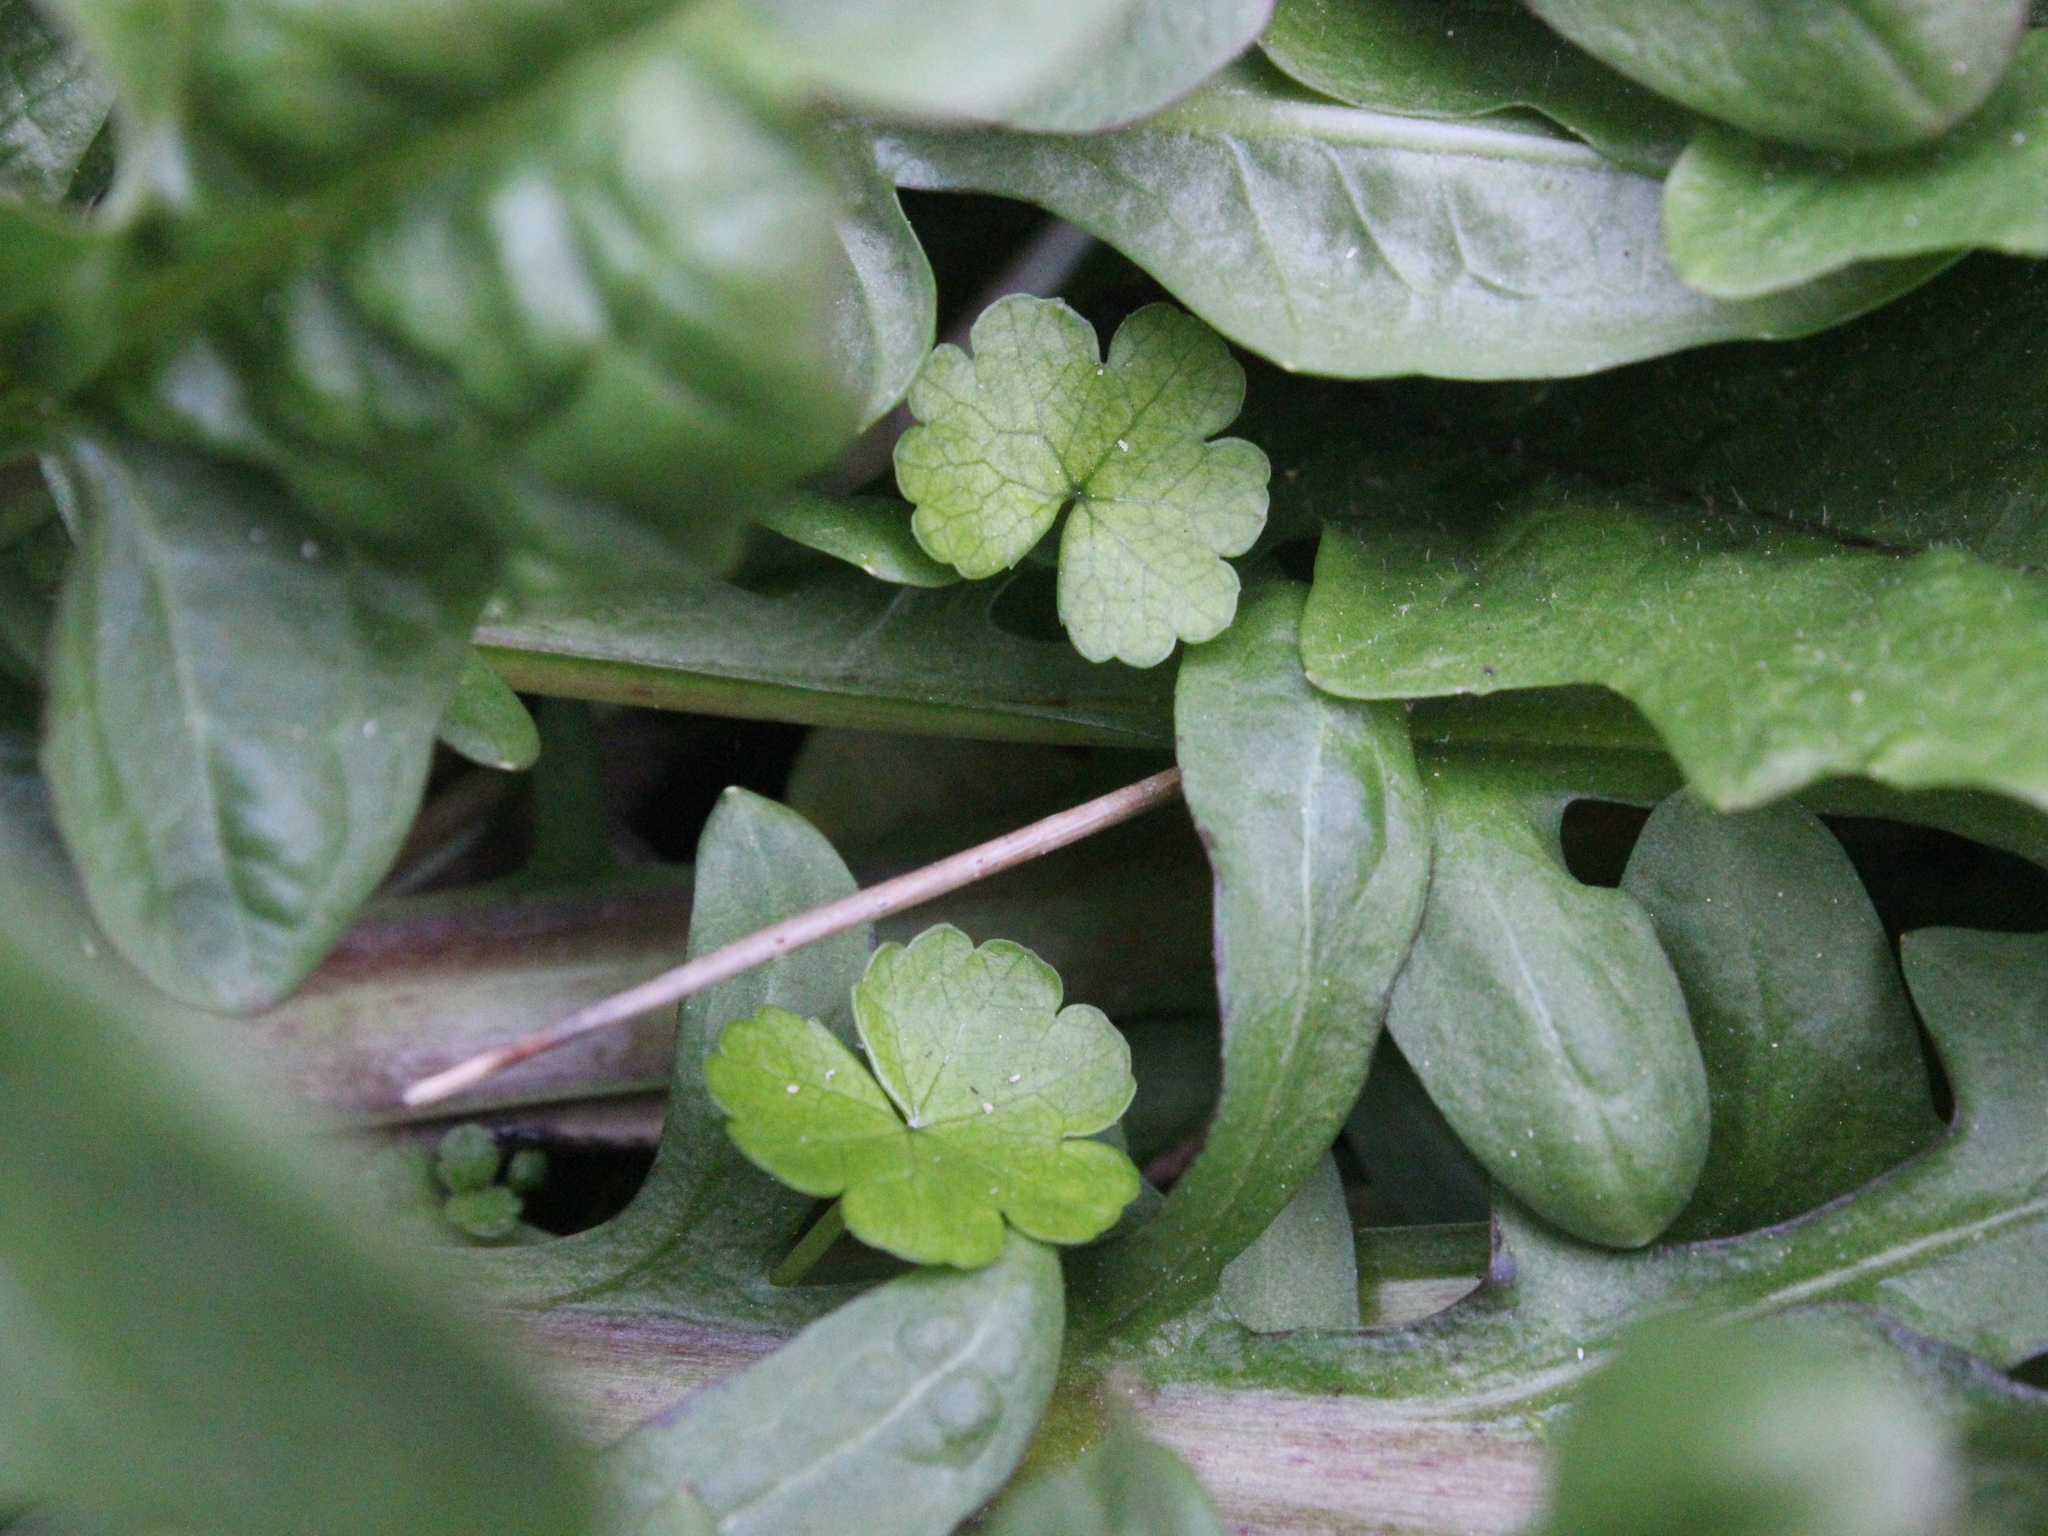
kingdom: Plantae
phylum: Tracheophyta
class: Magnoliopsida
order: Apiales
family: Araliaceae
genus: Hydrocotyle
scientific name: Hydrocotyle heteromeria
